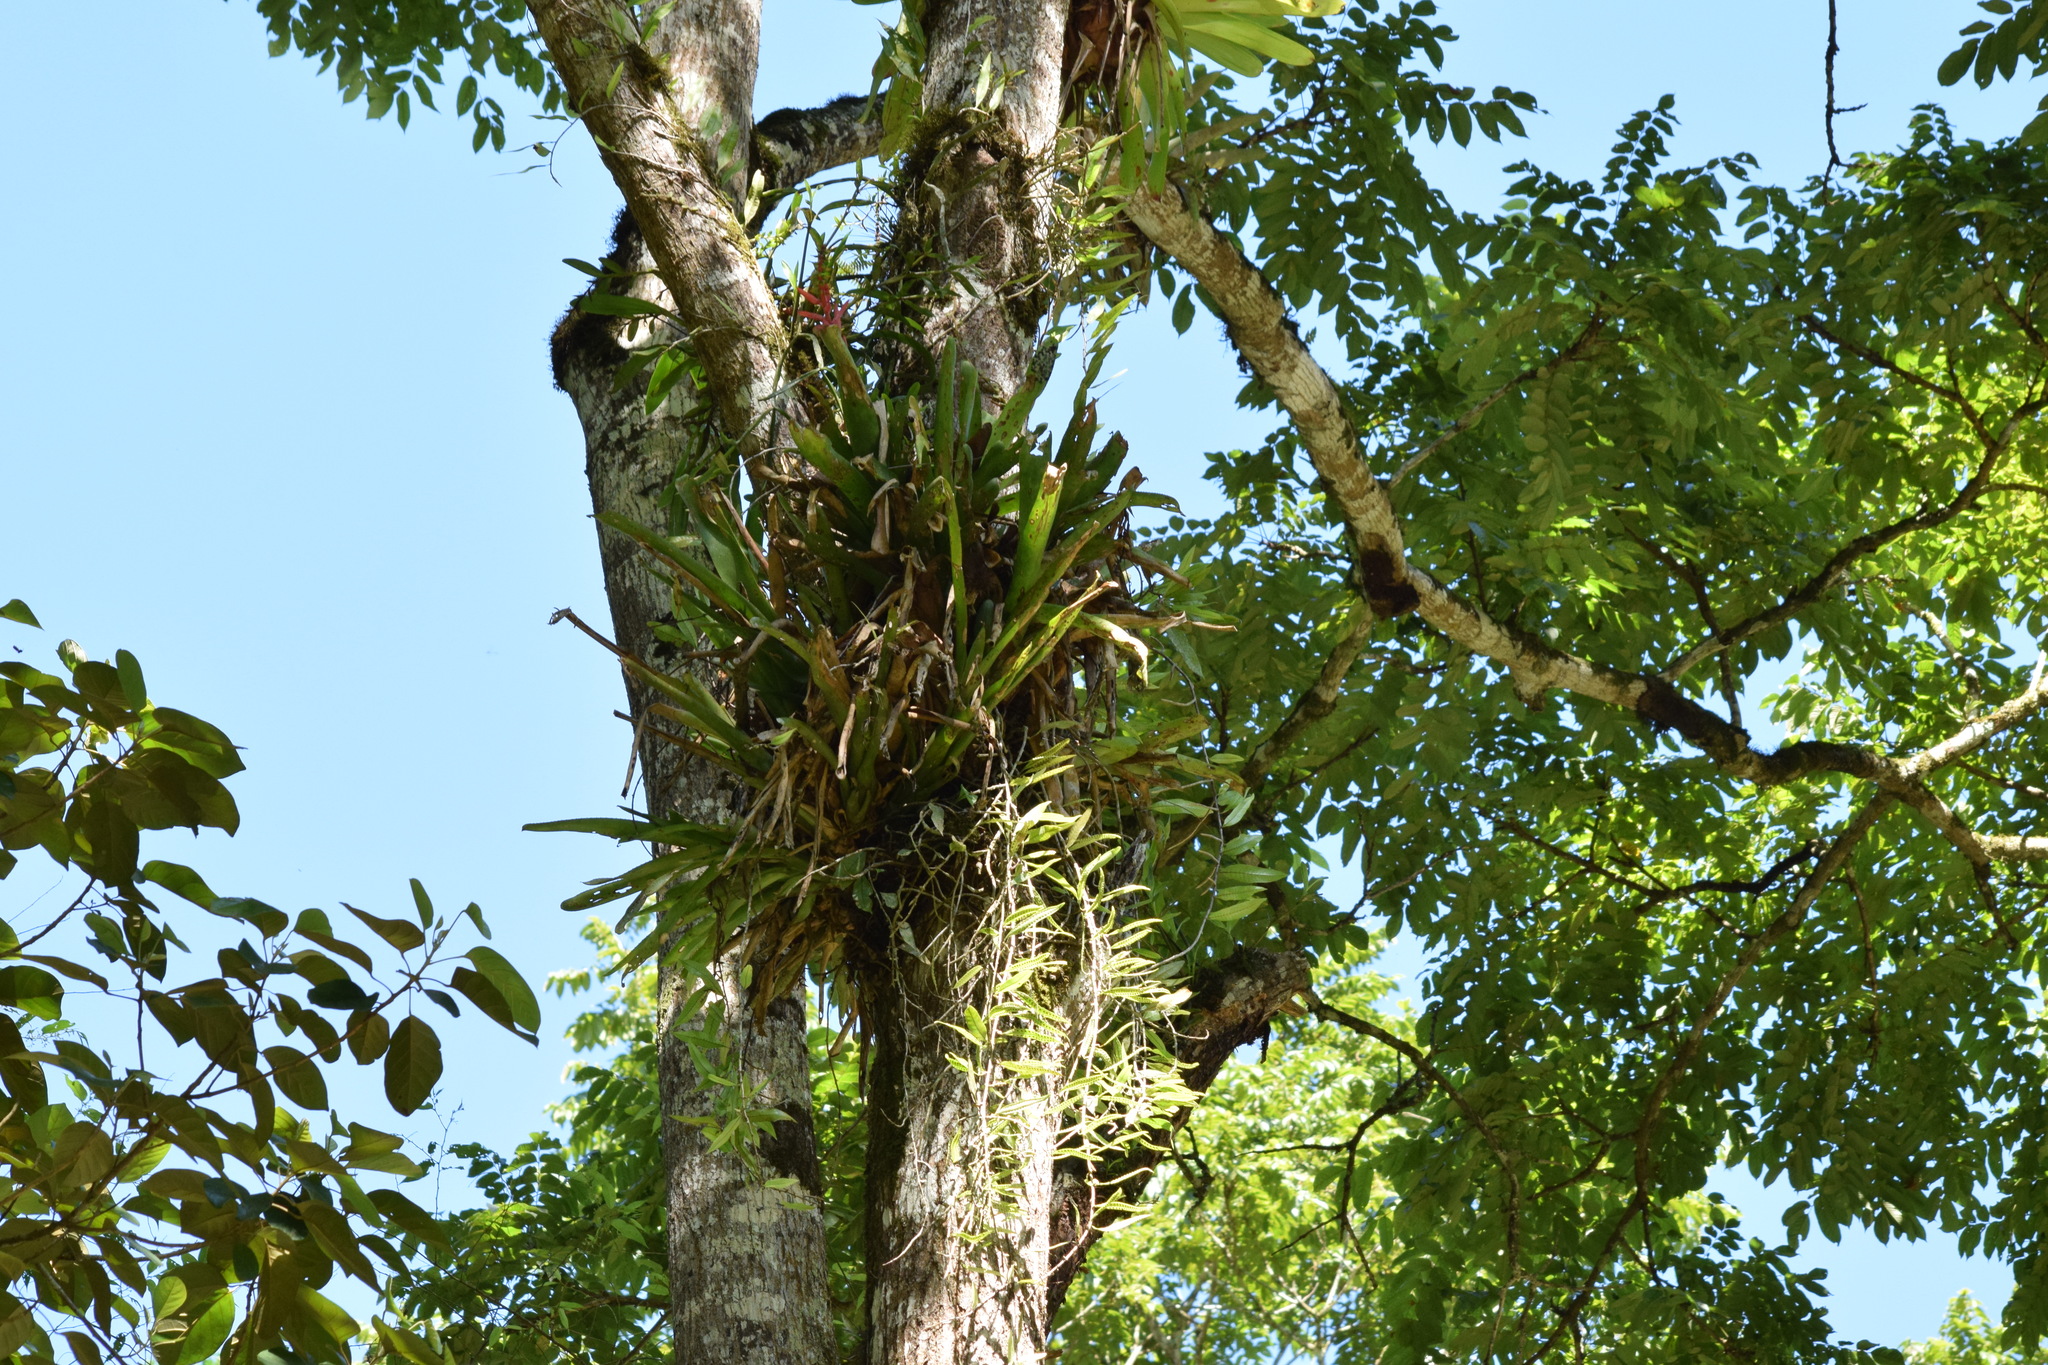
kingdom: Plantae
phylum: Tracheophyta
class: Liliopsida
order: Poales
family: Bromeliaceae
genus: Aechmea
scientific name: Aechmea nudicaulis
